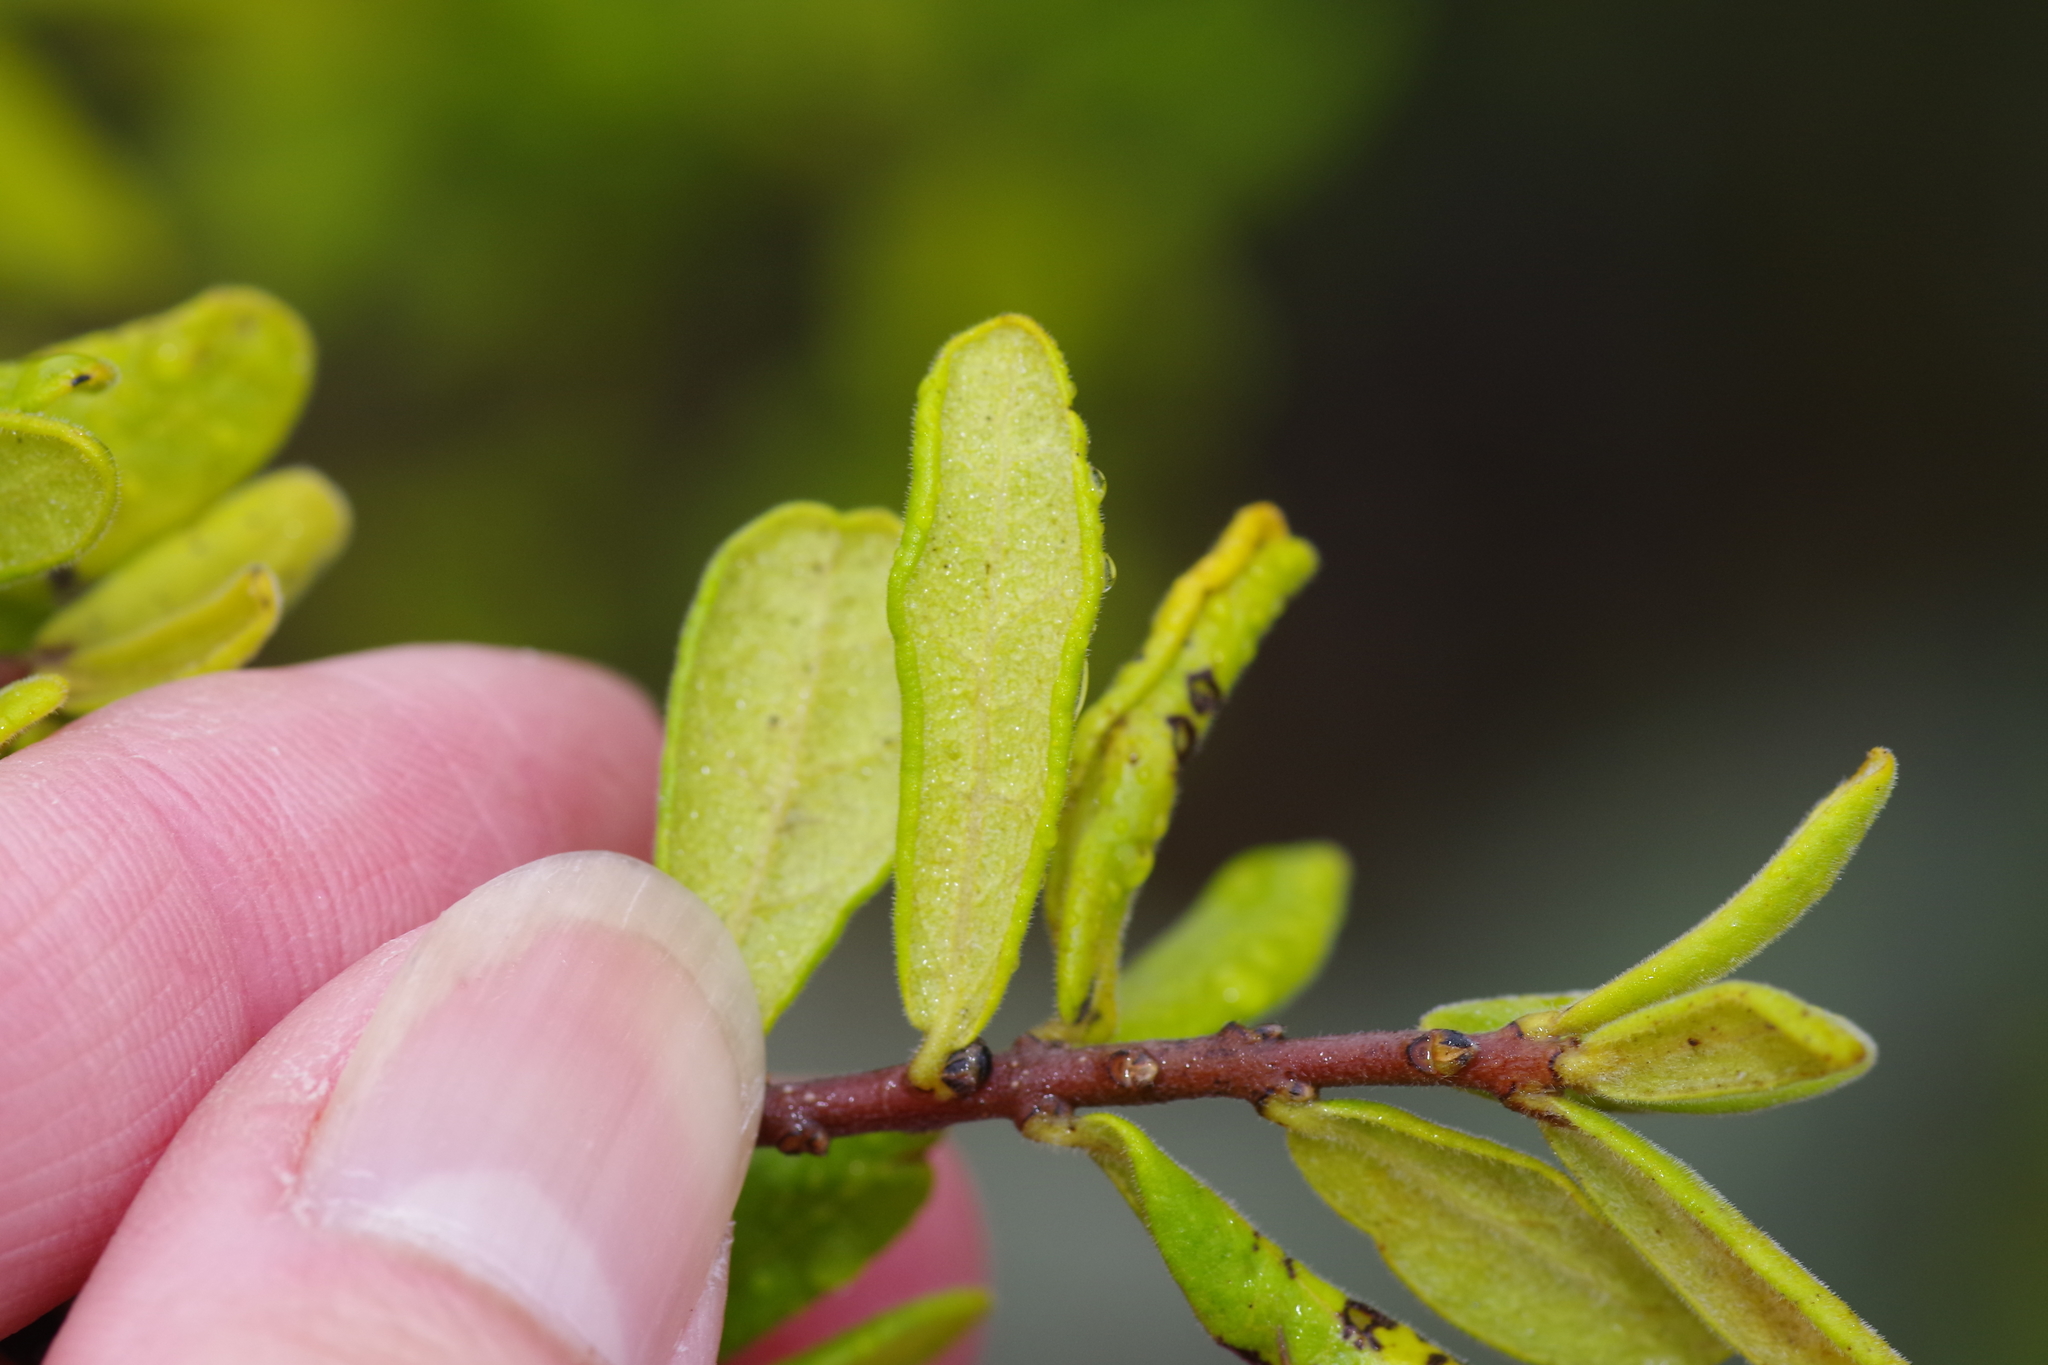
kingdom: Plantae
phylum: Tracheophyta
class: Magnoliopsida
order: Ericales
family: Ebenaceae
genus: Diospyros
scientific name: Diospyros texana
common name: Texas persimmon
